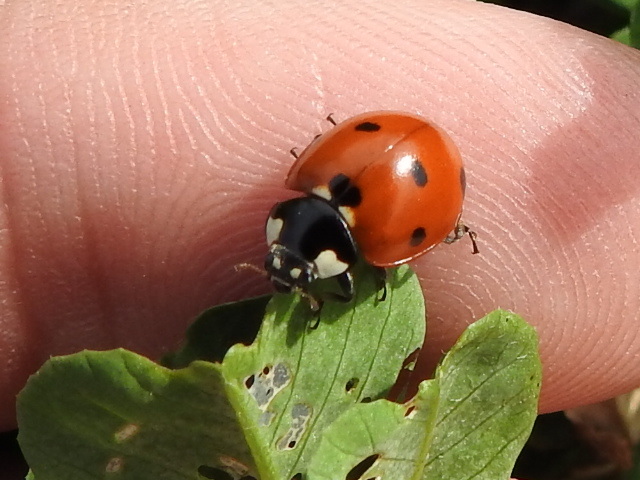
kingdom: Animalia
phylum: Arthropoda
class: Insecta
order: Coleoptera
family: Coccinellidae
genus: Coccinella
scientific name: Coccinella septempunctata
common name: Sevenspotted lady beetle
